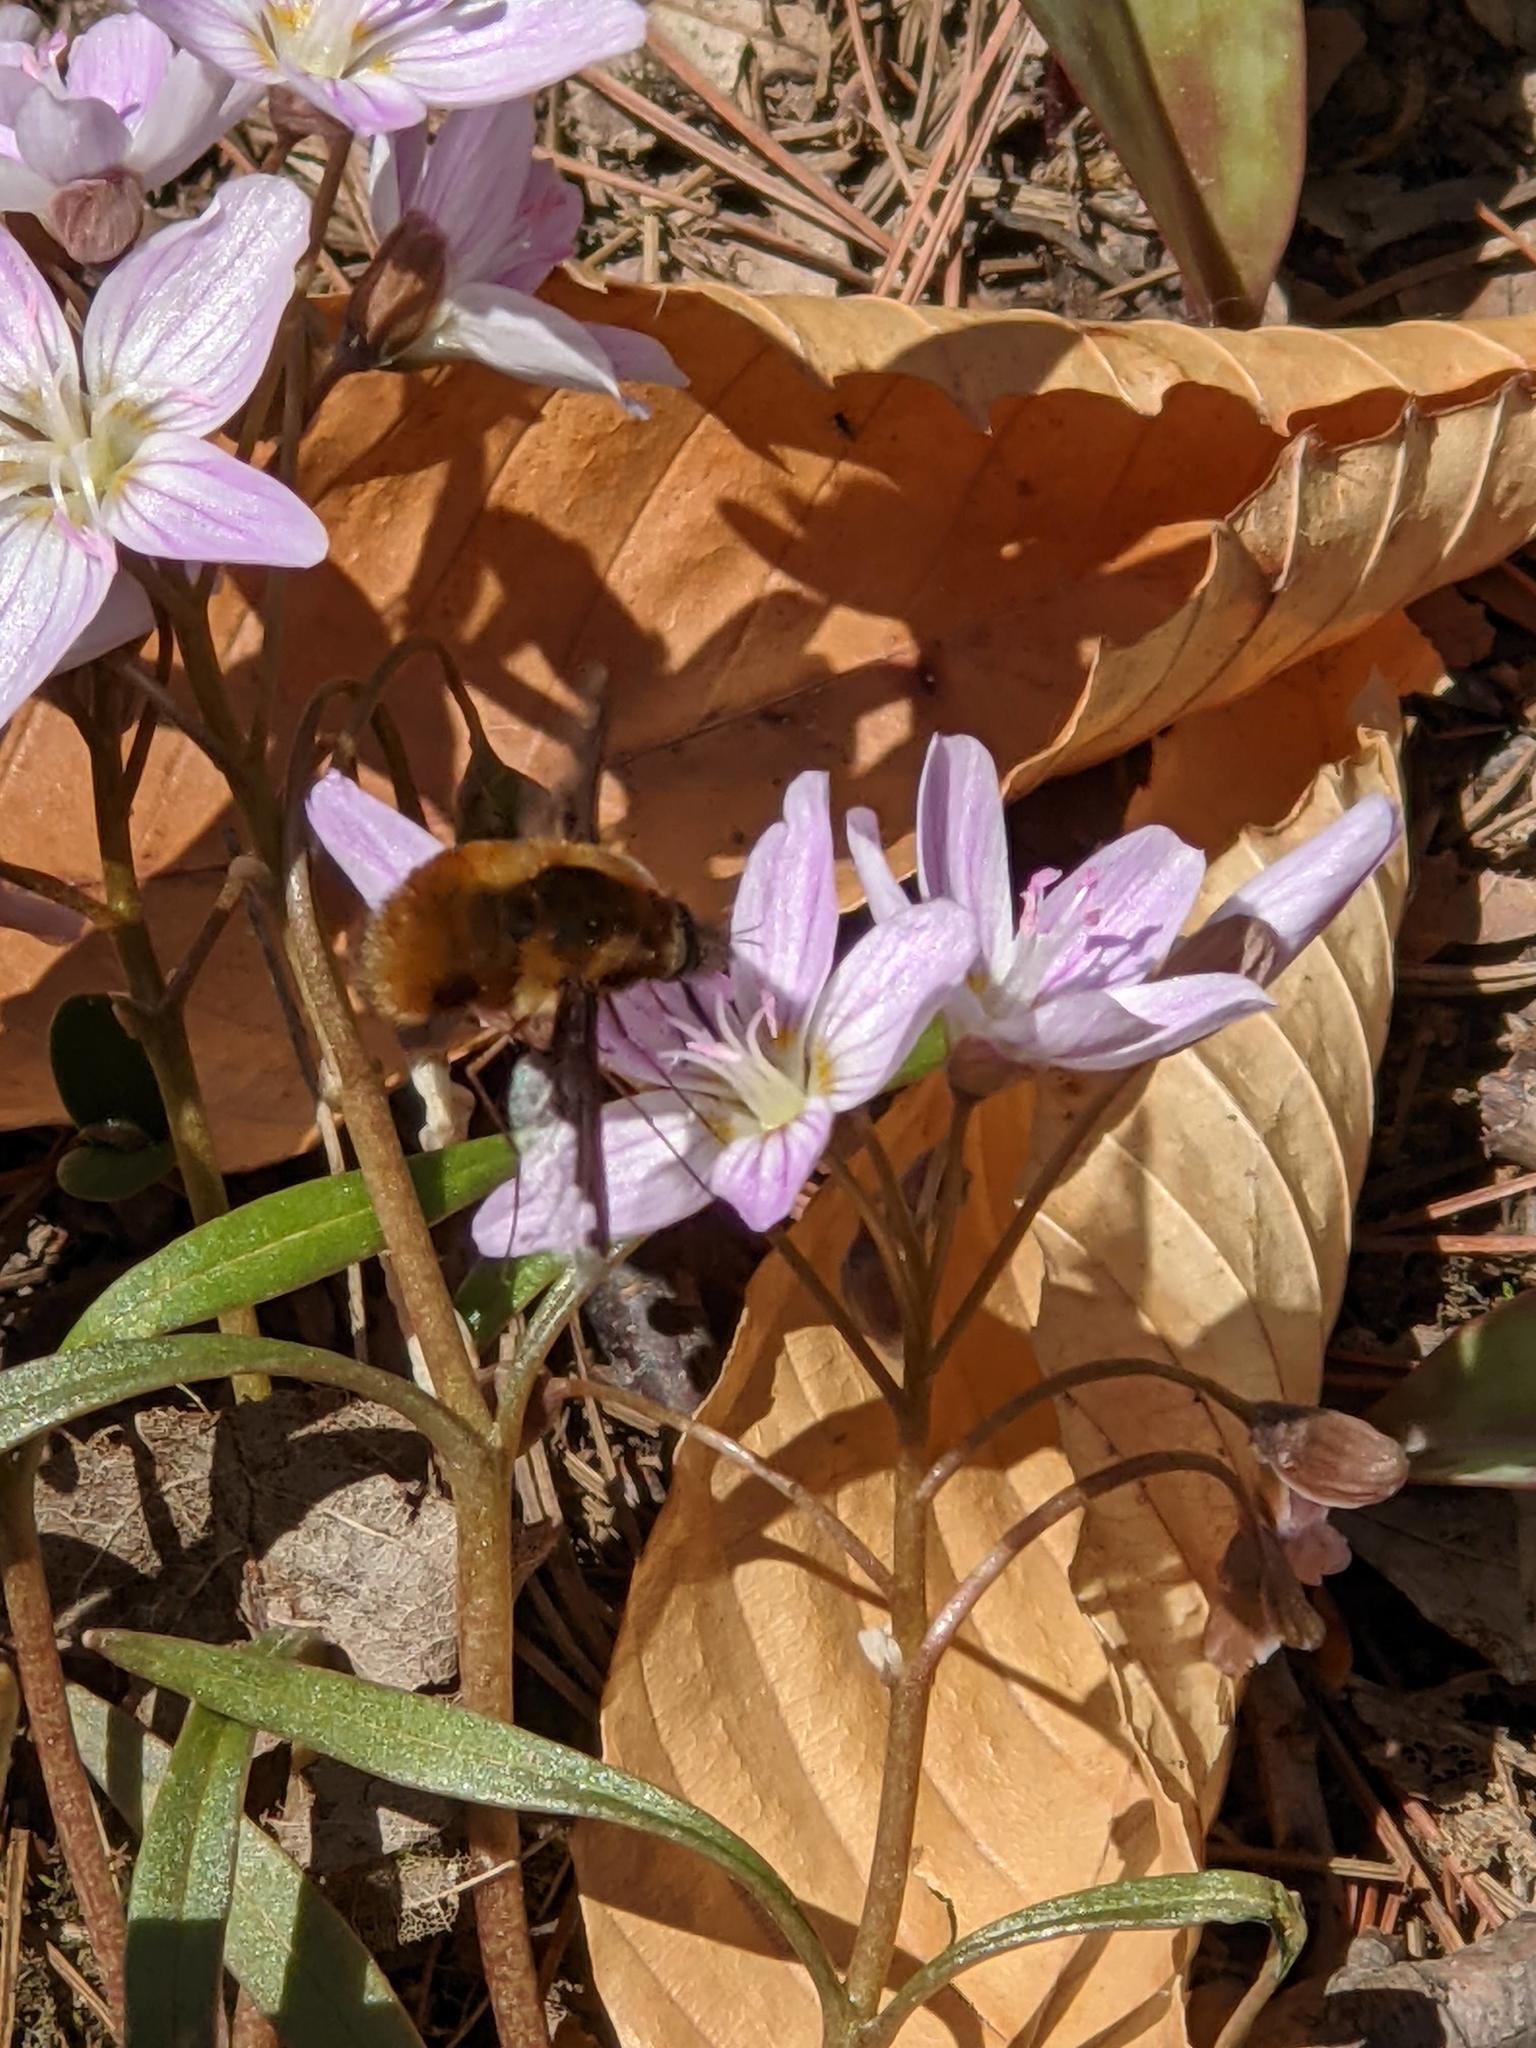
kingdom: Animalia
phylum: Arthropoda
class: Insecta
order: Diptera
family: Bombyliidae
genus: Bombylius
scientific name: Bombylius major
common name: Bee fly
